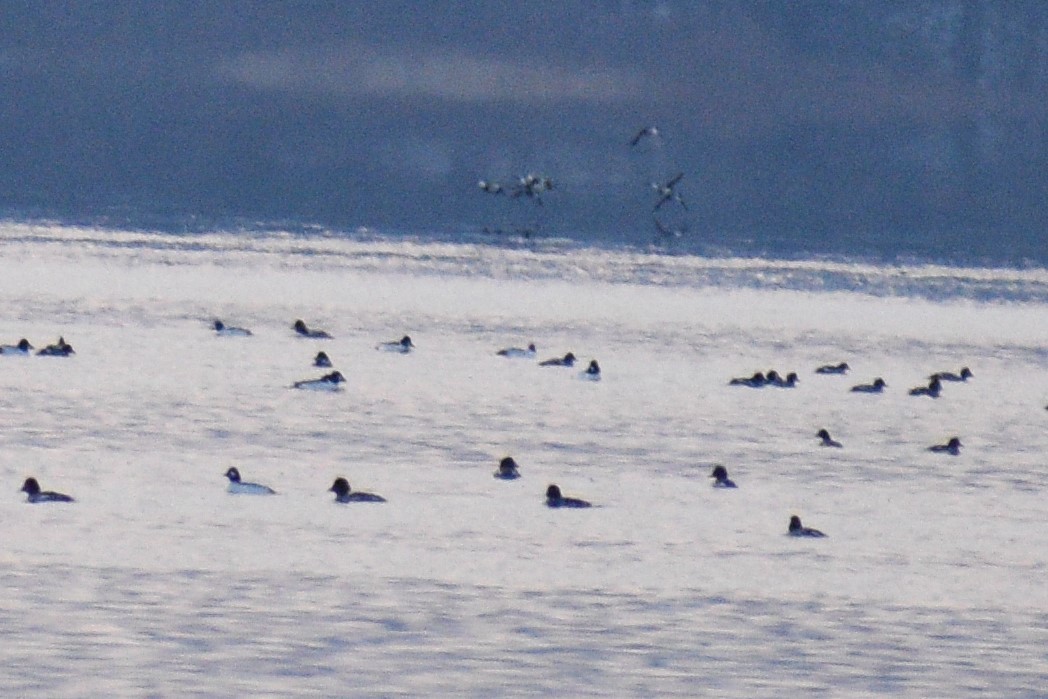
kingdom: Animalia
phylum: Chordata
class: Aves
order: Anseriformes
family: Anatidae
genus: Bucephala
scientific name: Bucephala clangula
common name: Common goldeneye
